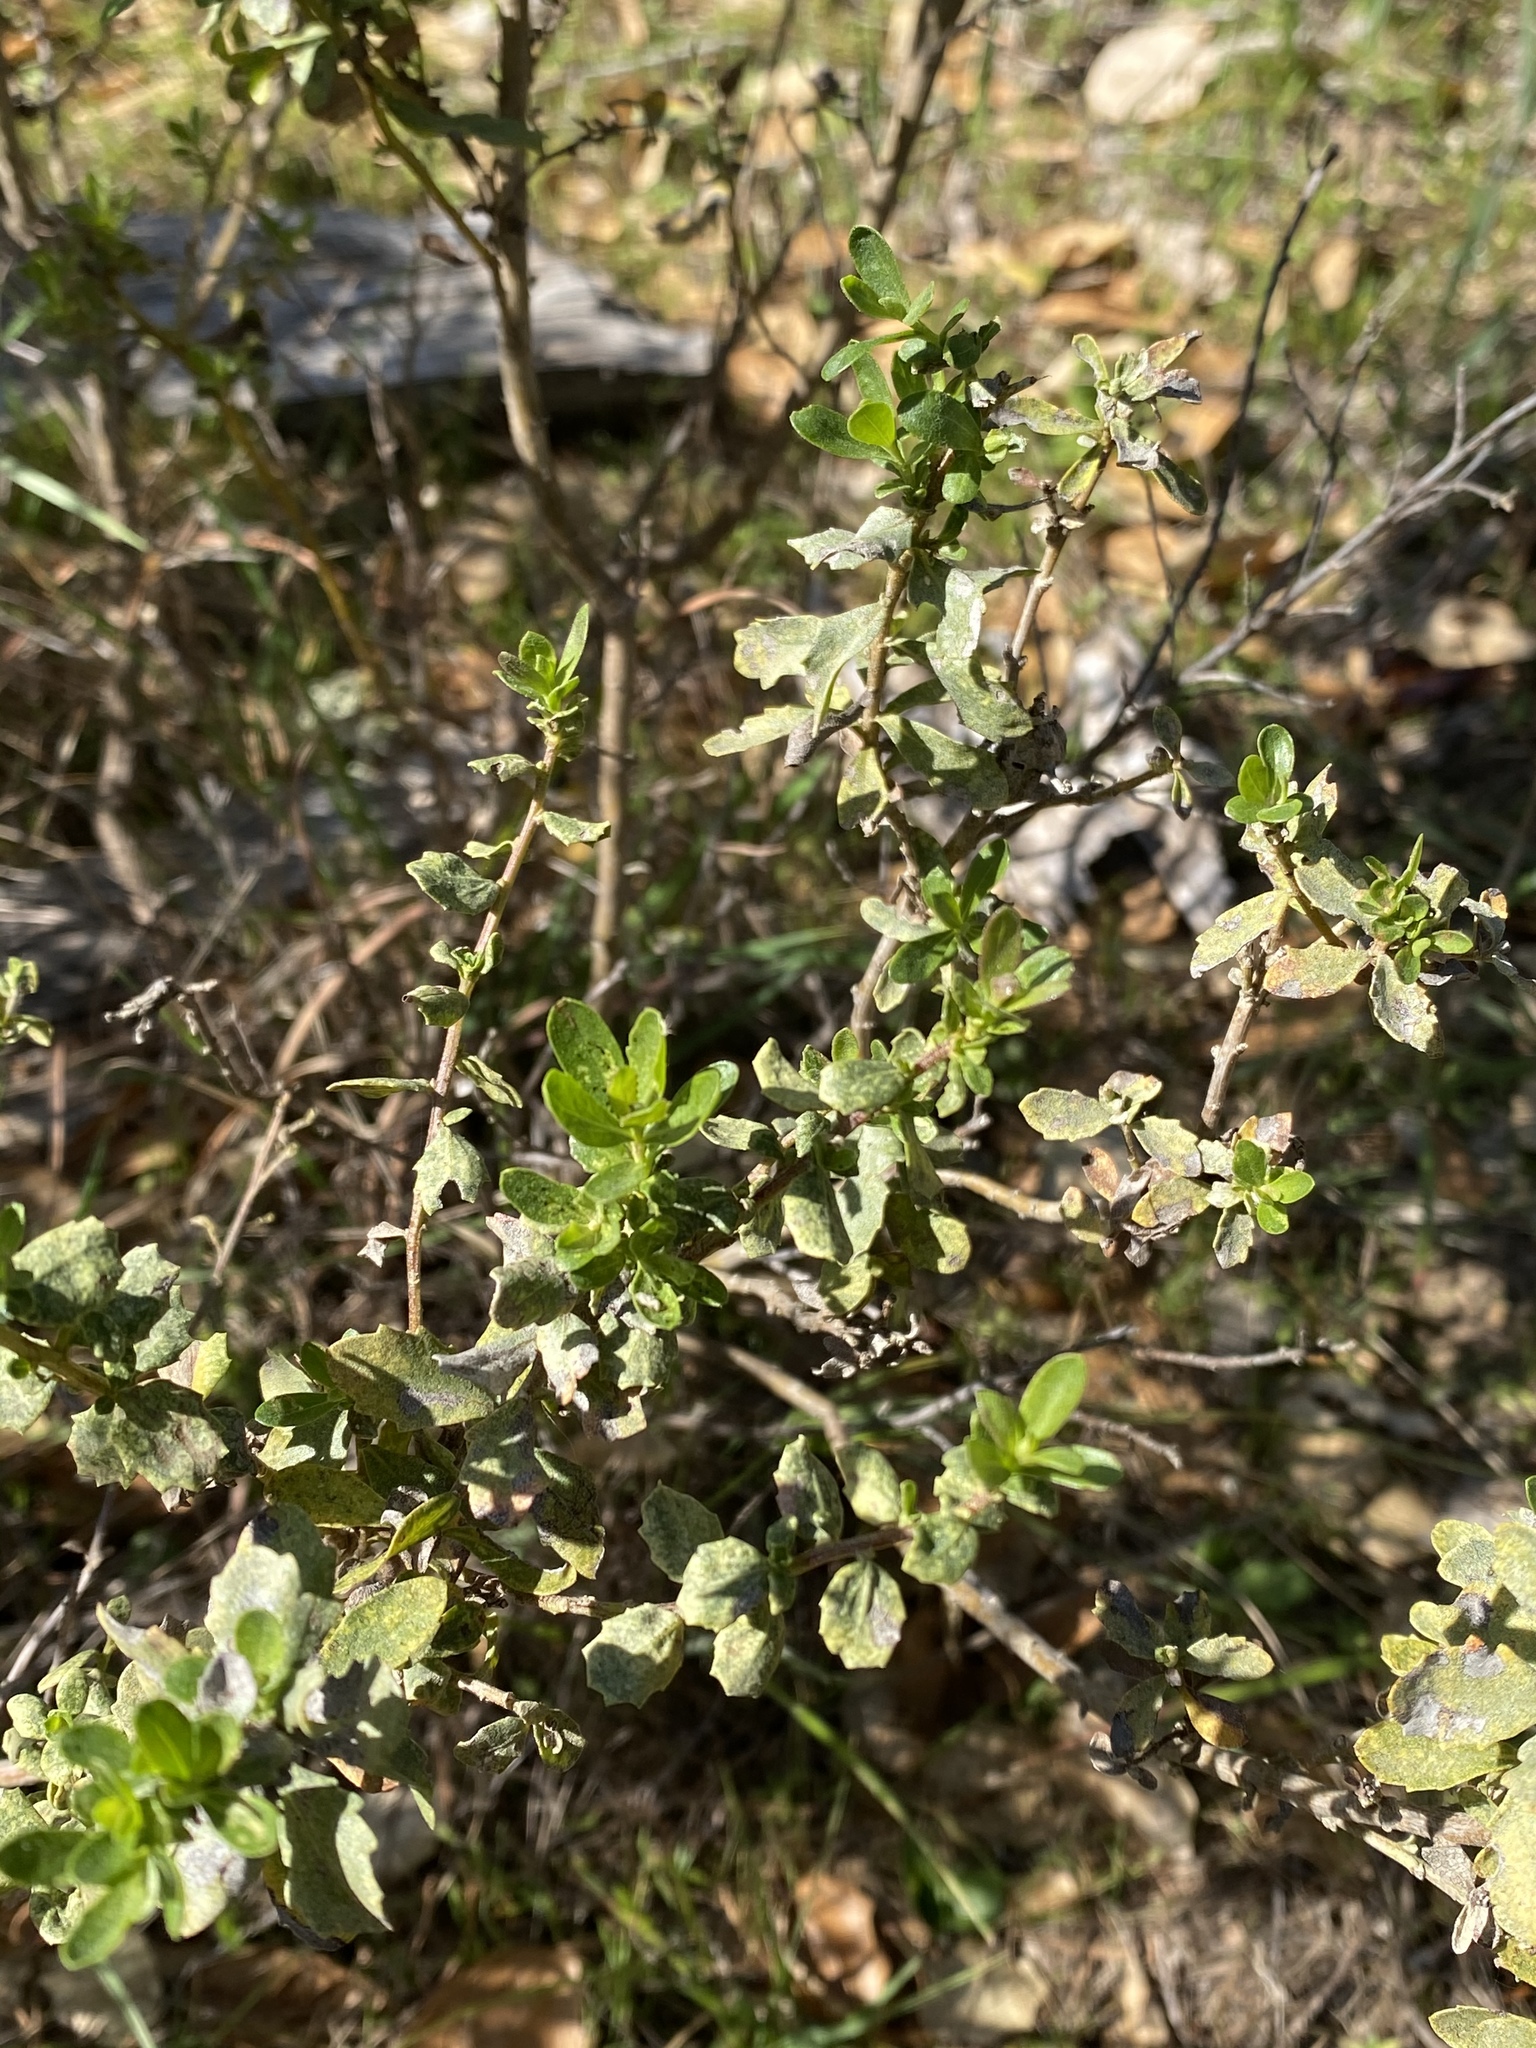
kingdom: Plantae
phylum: Tracheophyta
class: Magnoliopsida
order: Asterales
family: Asteraceae
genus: Baccharis
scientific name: Baccharis pilularis
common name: Coyotebrush
